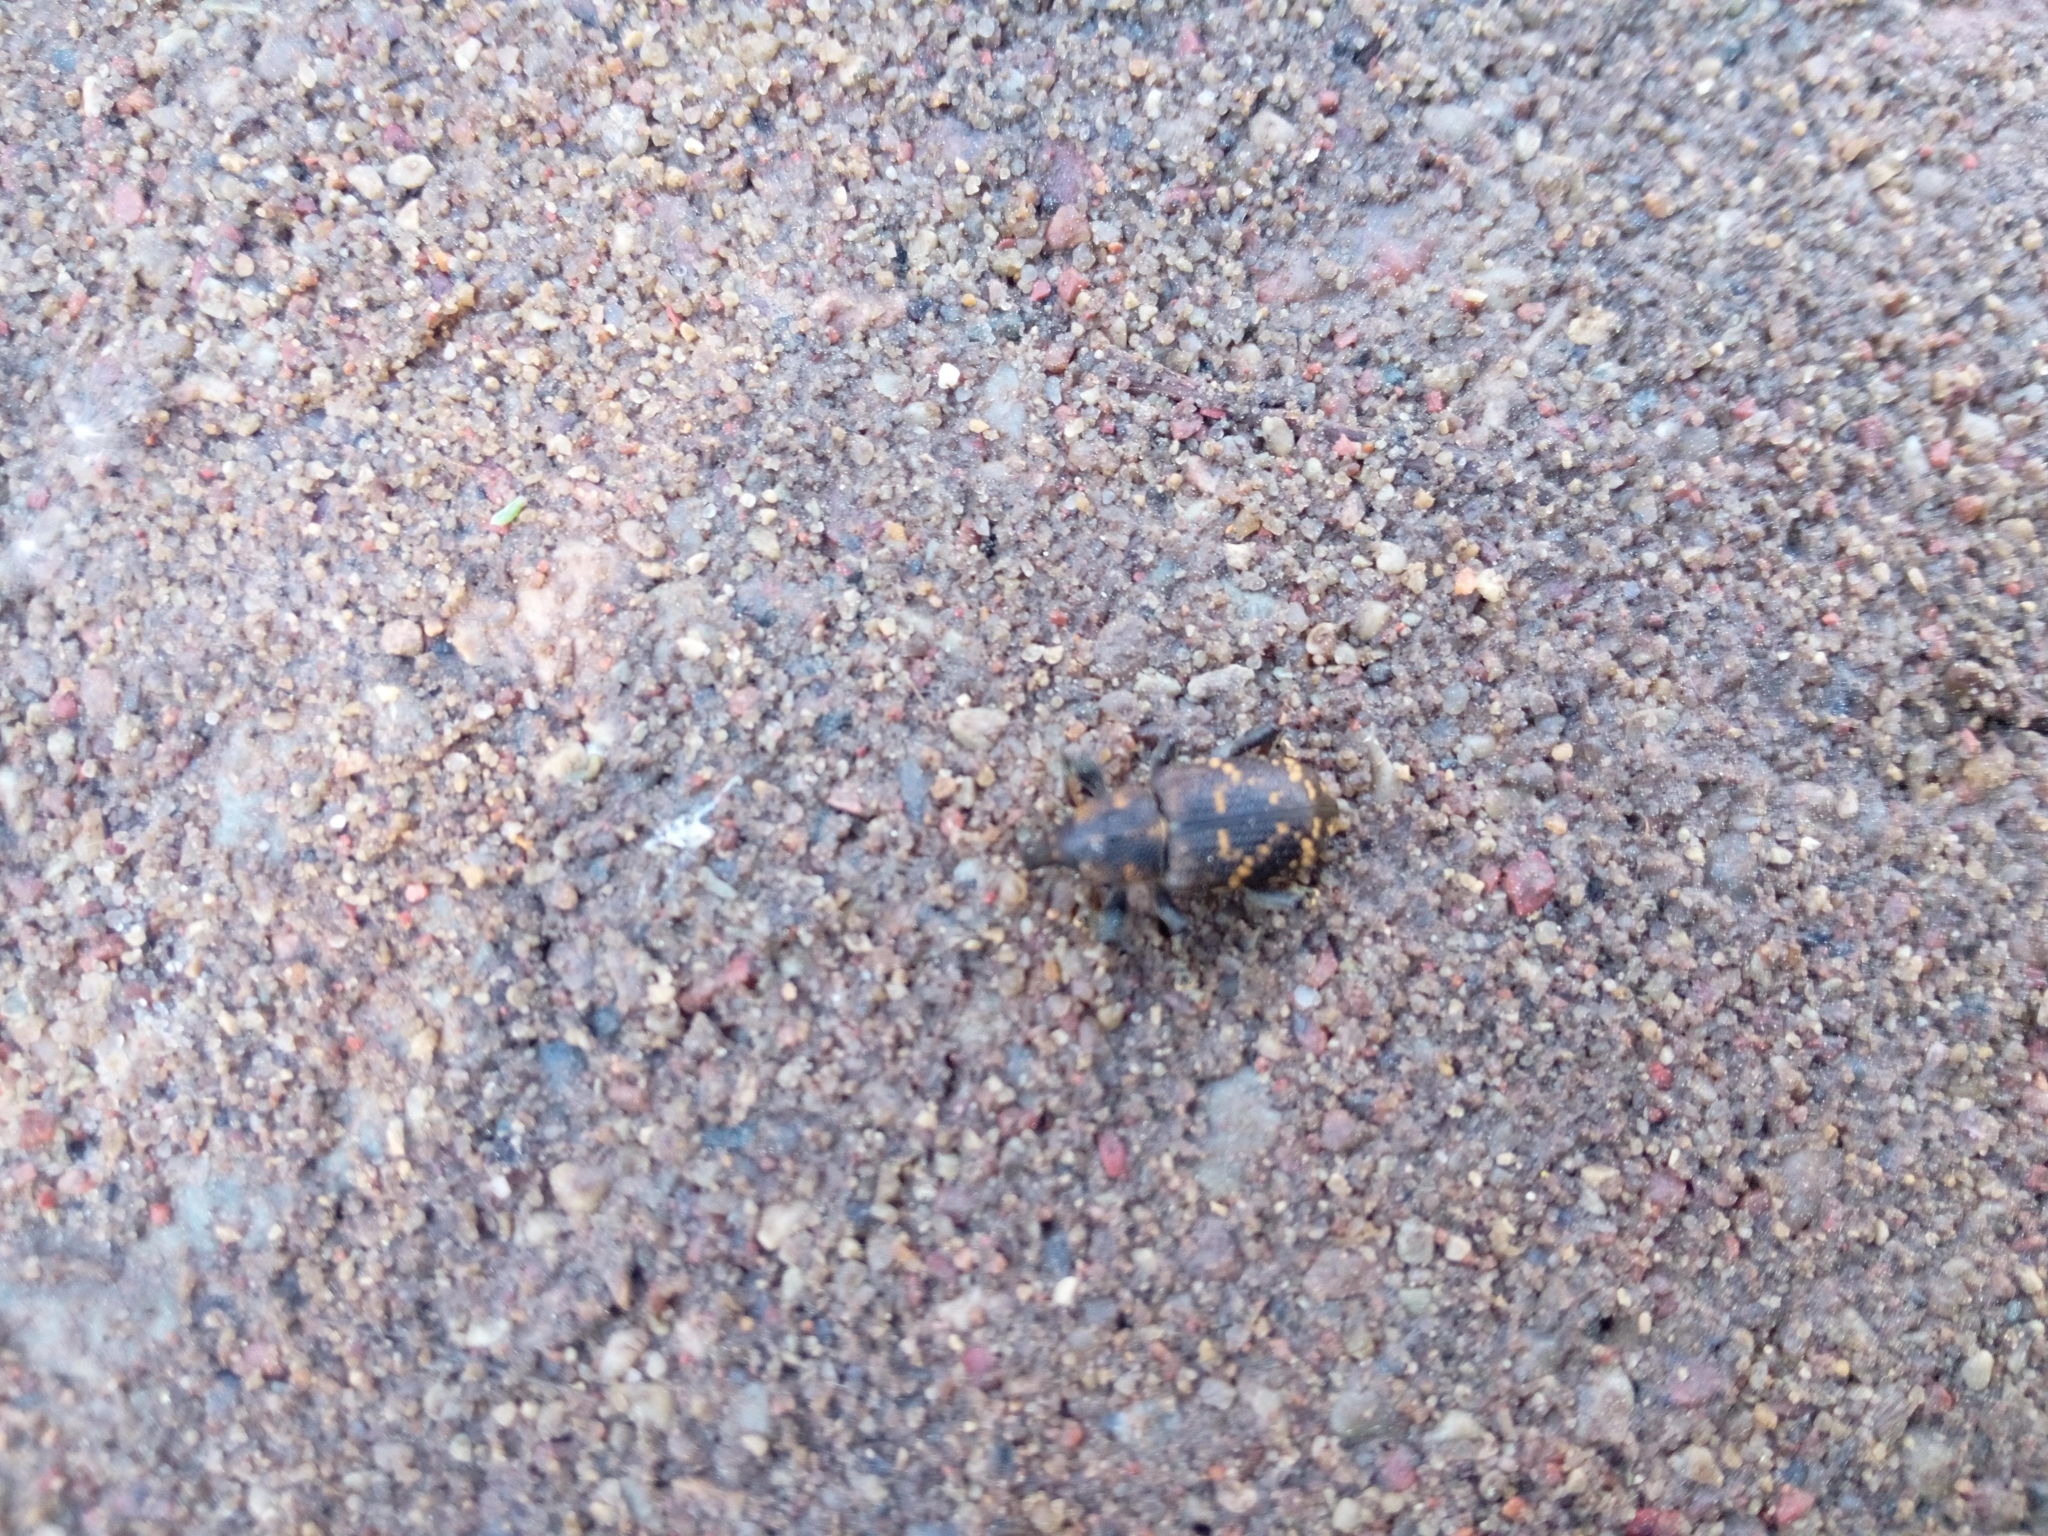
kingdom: Animalia
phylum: Arthropoda
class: Insecta
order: Coleoptera
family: Curculionidae
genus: Hylobius
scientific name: Hylobius abietis
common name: Large pine weevil
